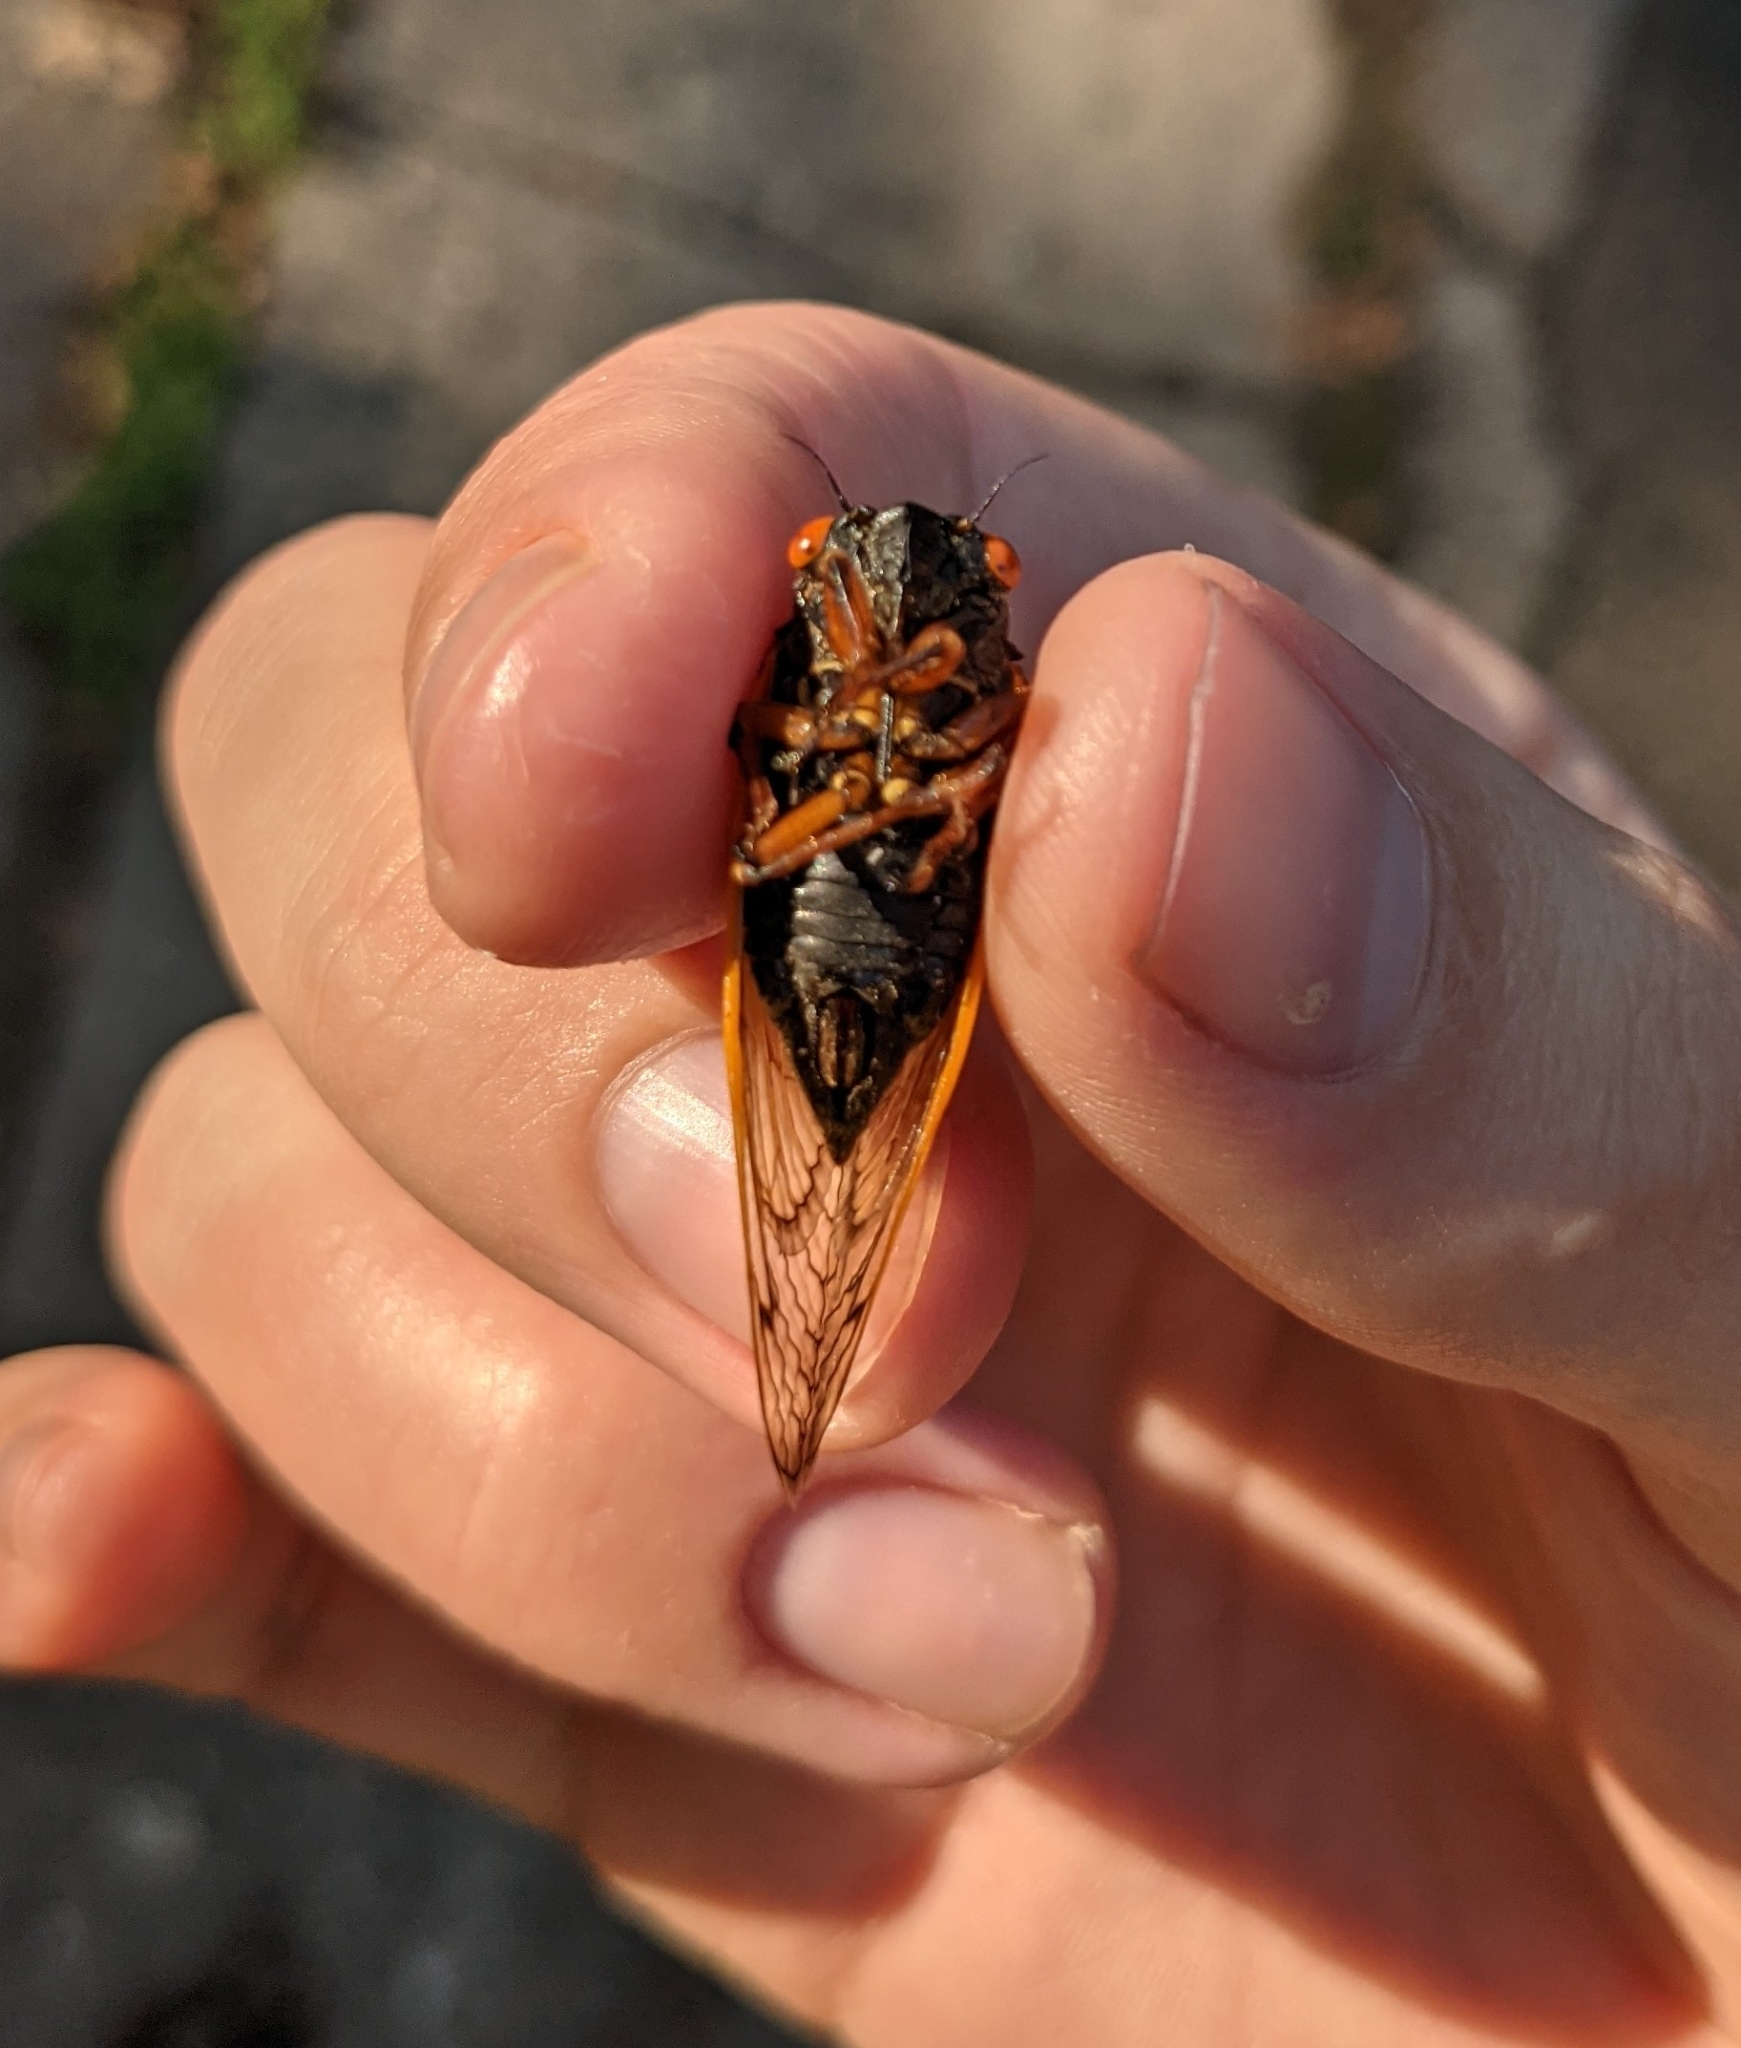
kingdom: Animalia
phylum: Arthropoda
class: Insecta
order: Hemiptera
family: Cicadidae
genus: Magicicada
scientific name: Magicicada cassini
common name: Cassin's 17-year cicada
